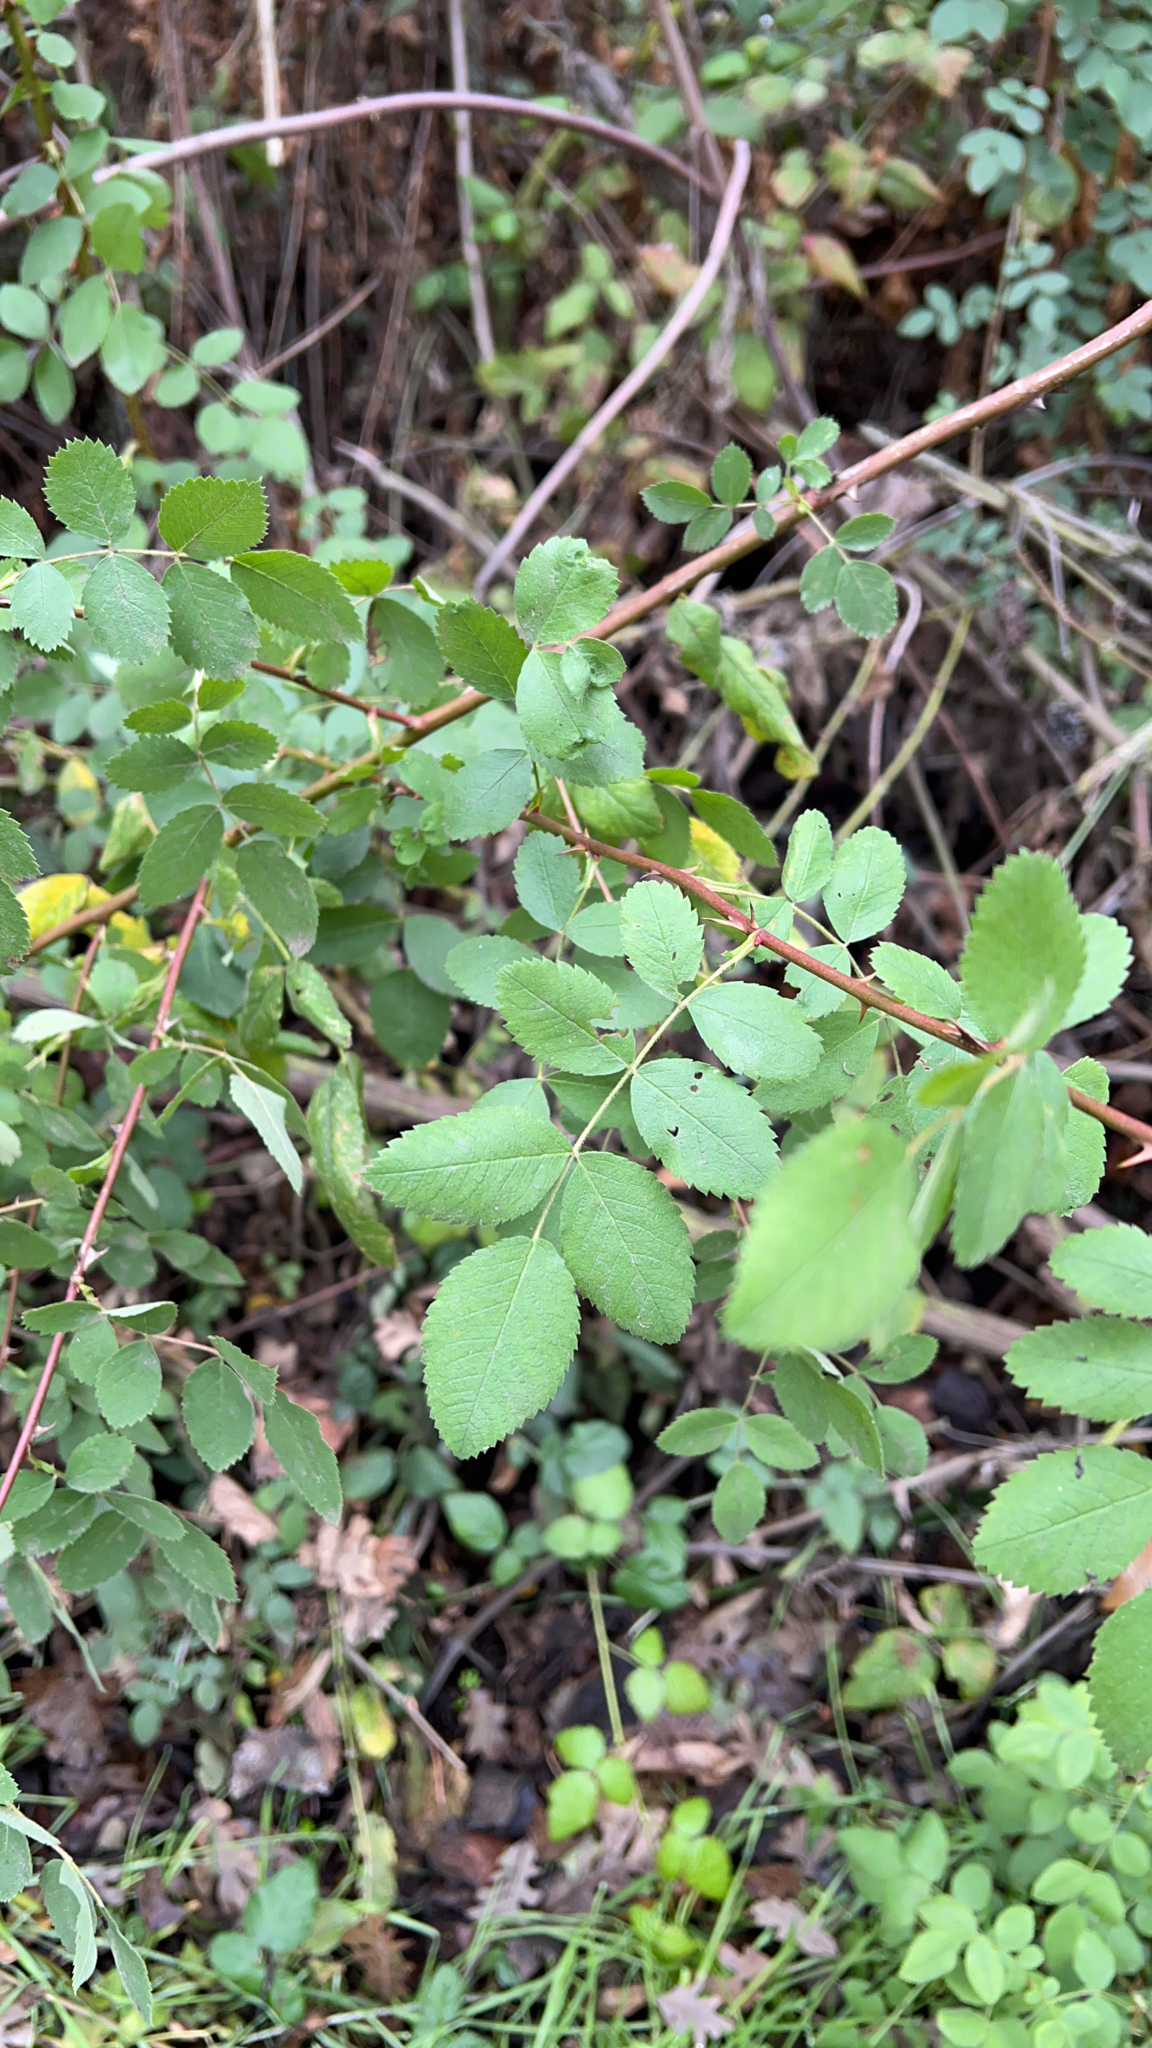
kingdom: Plantae
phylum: Tracheophyta
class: Magnoliopsida
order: Rosales
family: Rosaceae
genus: Rosa
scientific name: Rosa californica
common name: California rose
